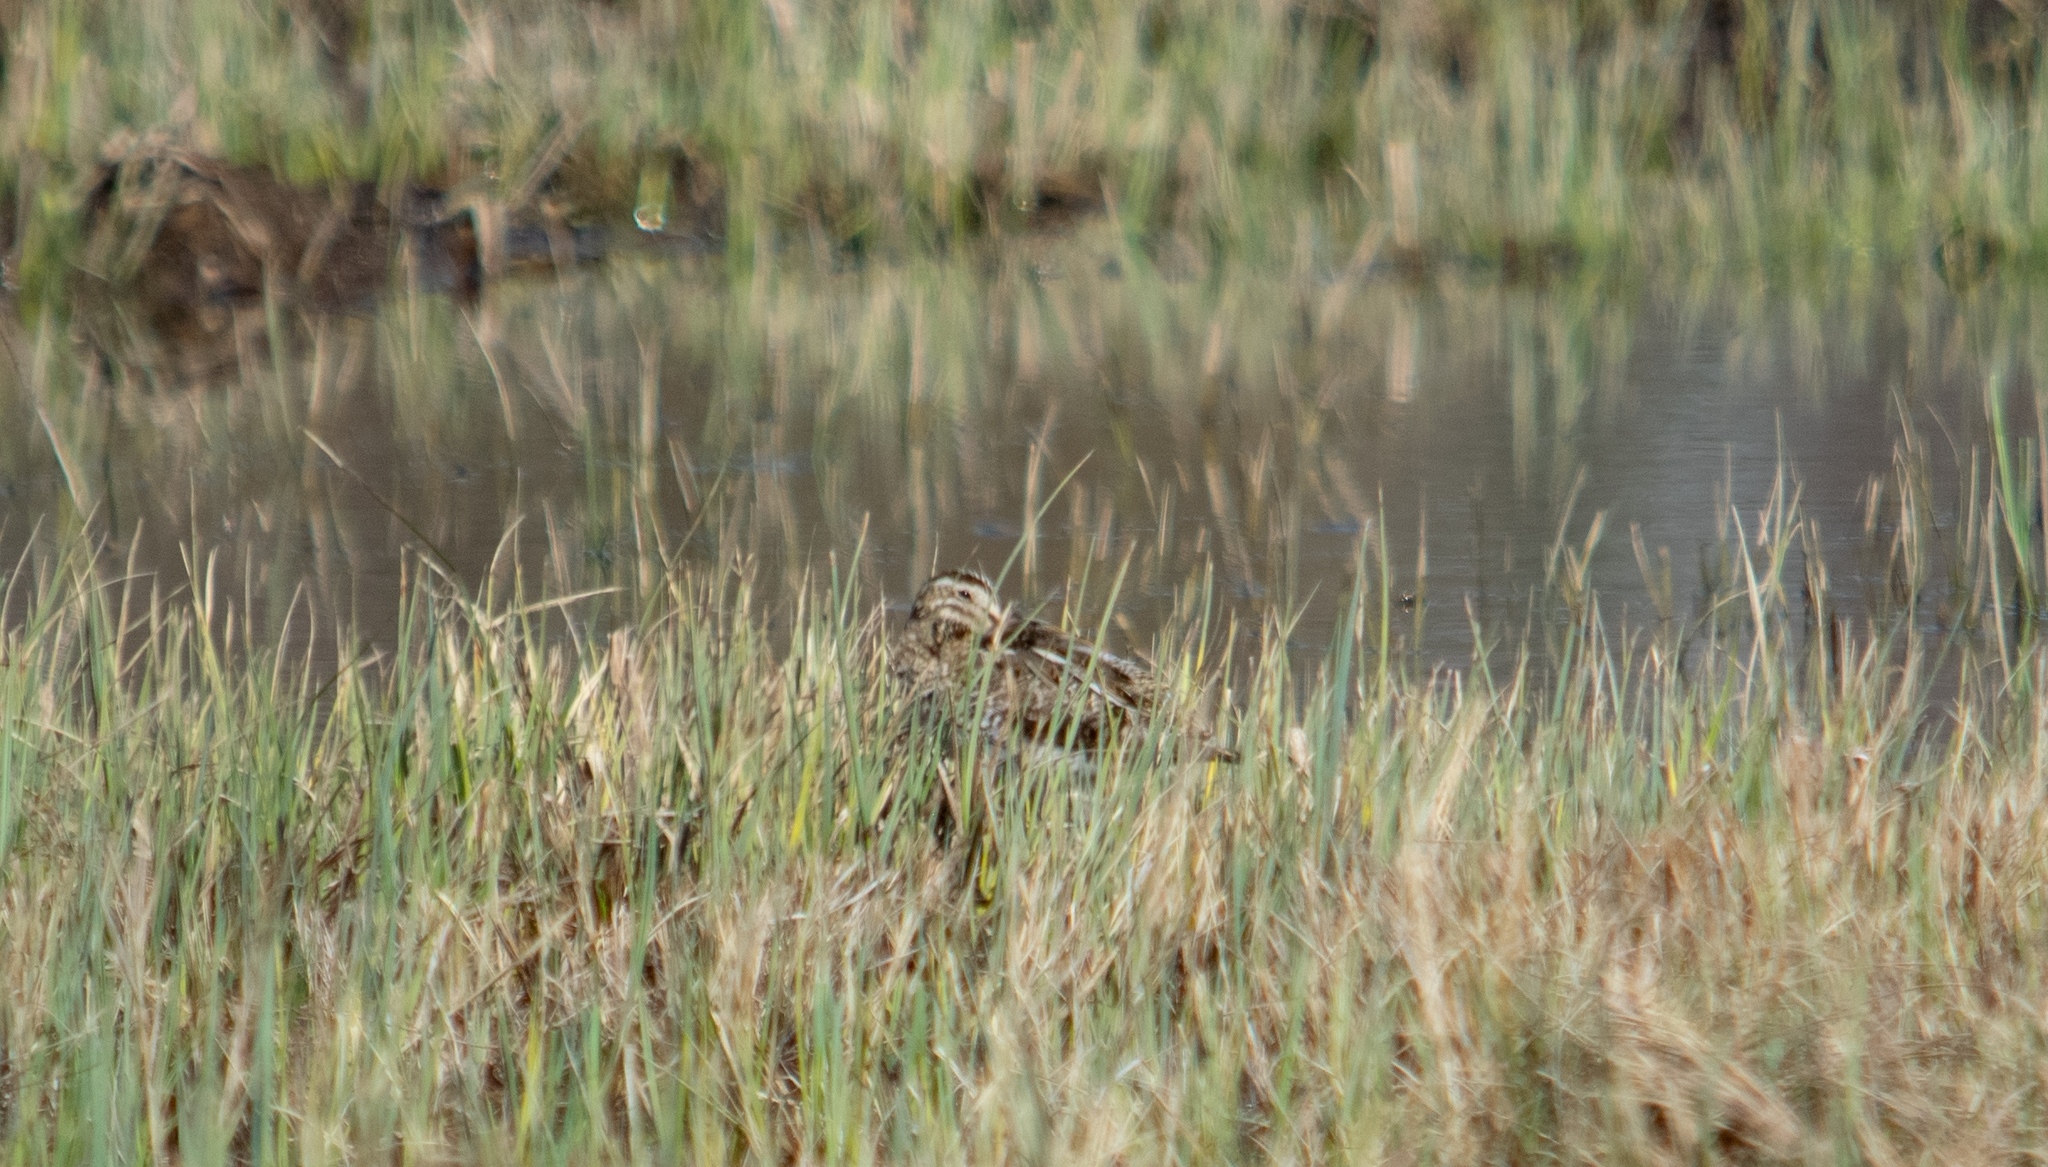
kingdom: Animalia
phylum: Chordata
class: Aves
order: Charadriiformes
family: Scolopacidae
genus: Gallinago
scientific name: Gallinago gallinago
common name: Common snipe
